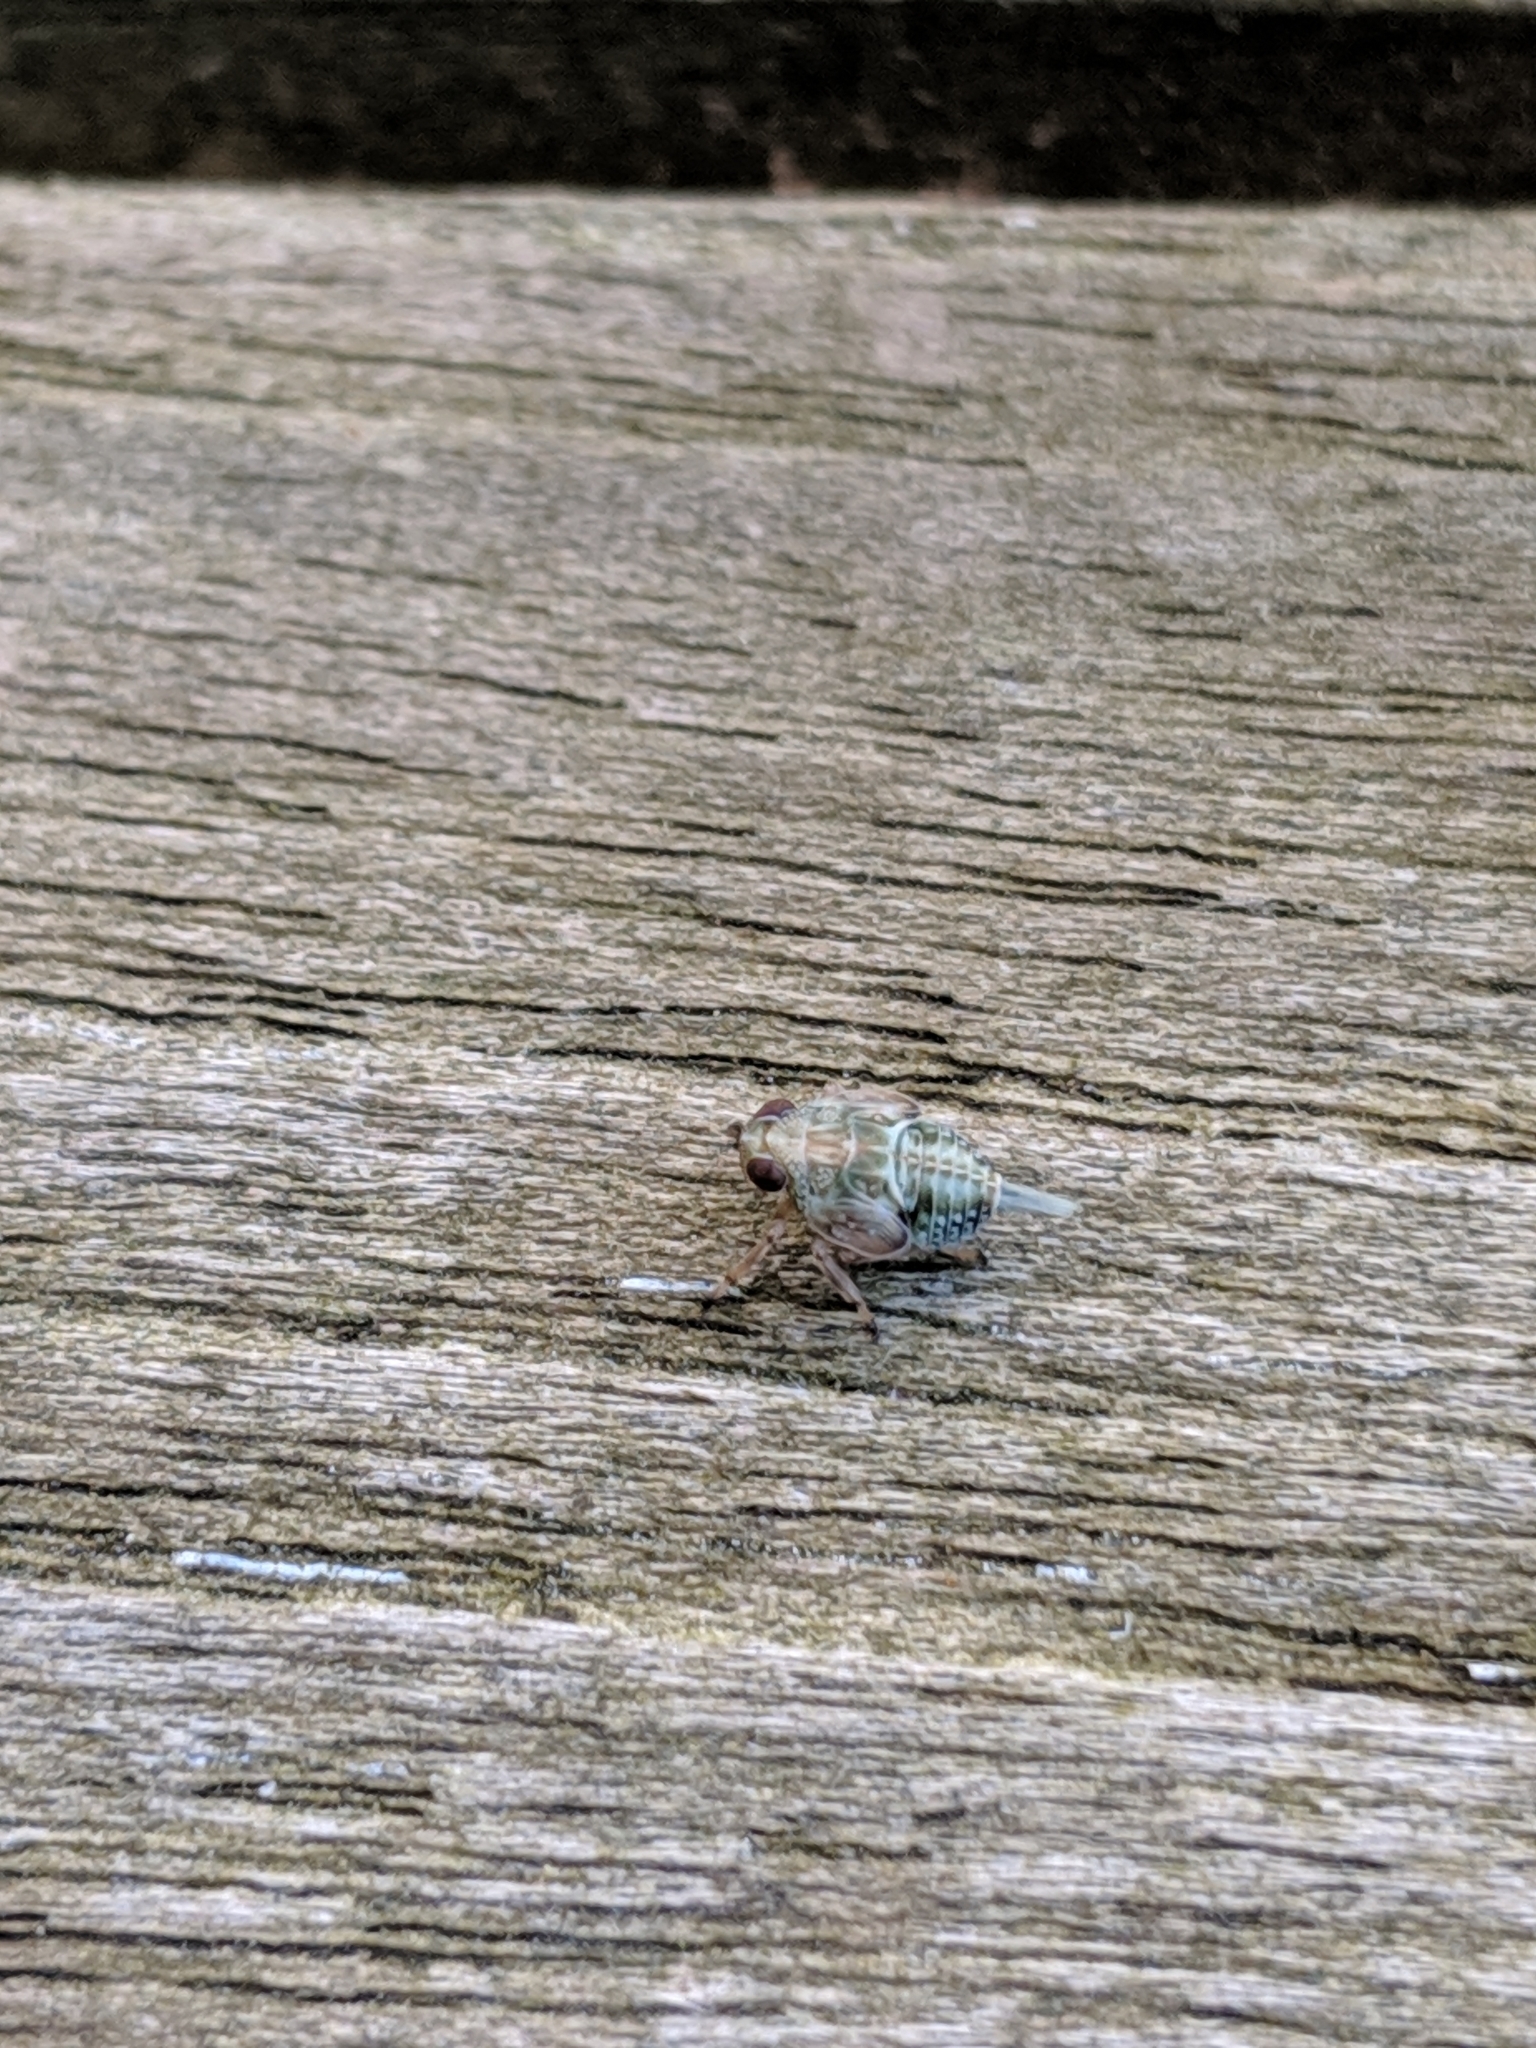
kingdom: Animalia
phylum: Arthropoda
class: Insecta
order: Hemiptera
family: Issidae
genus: Issus
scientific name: Issus coleoptratus
